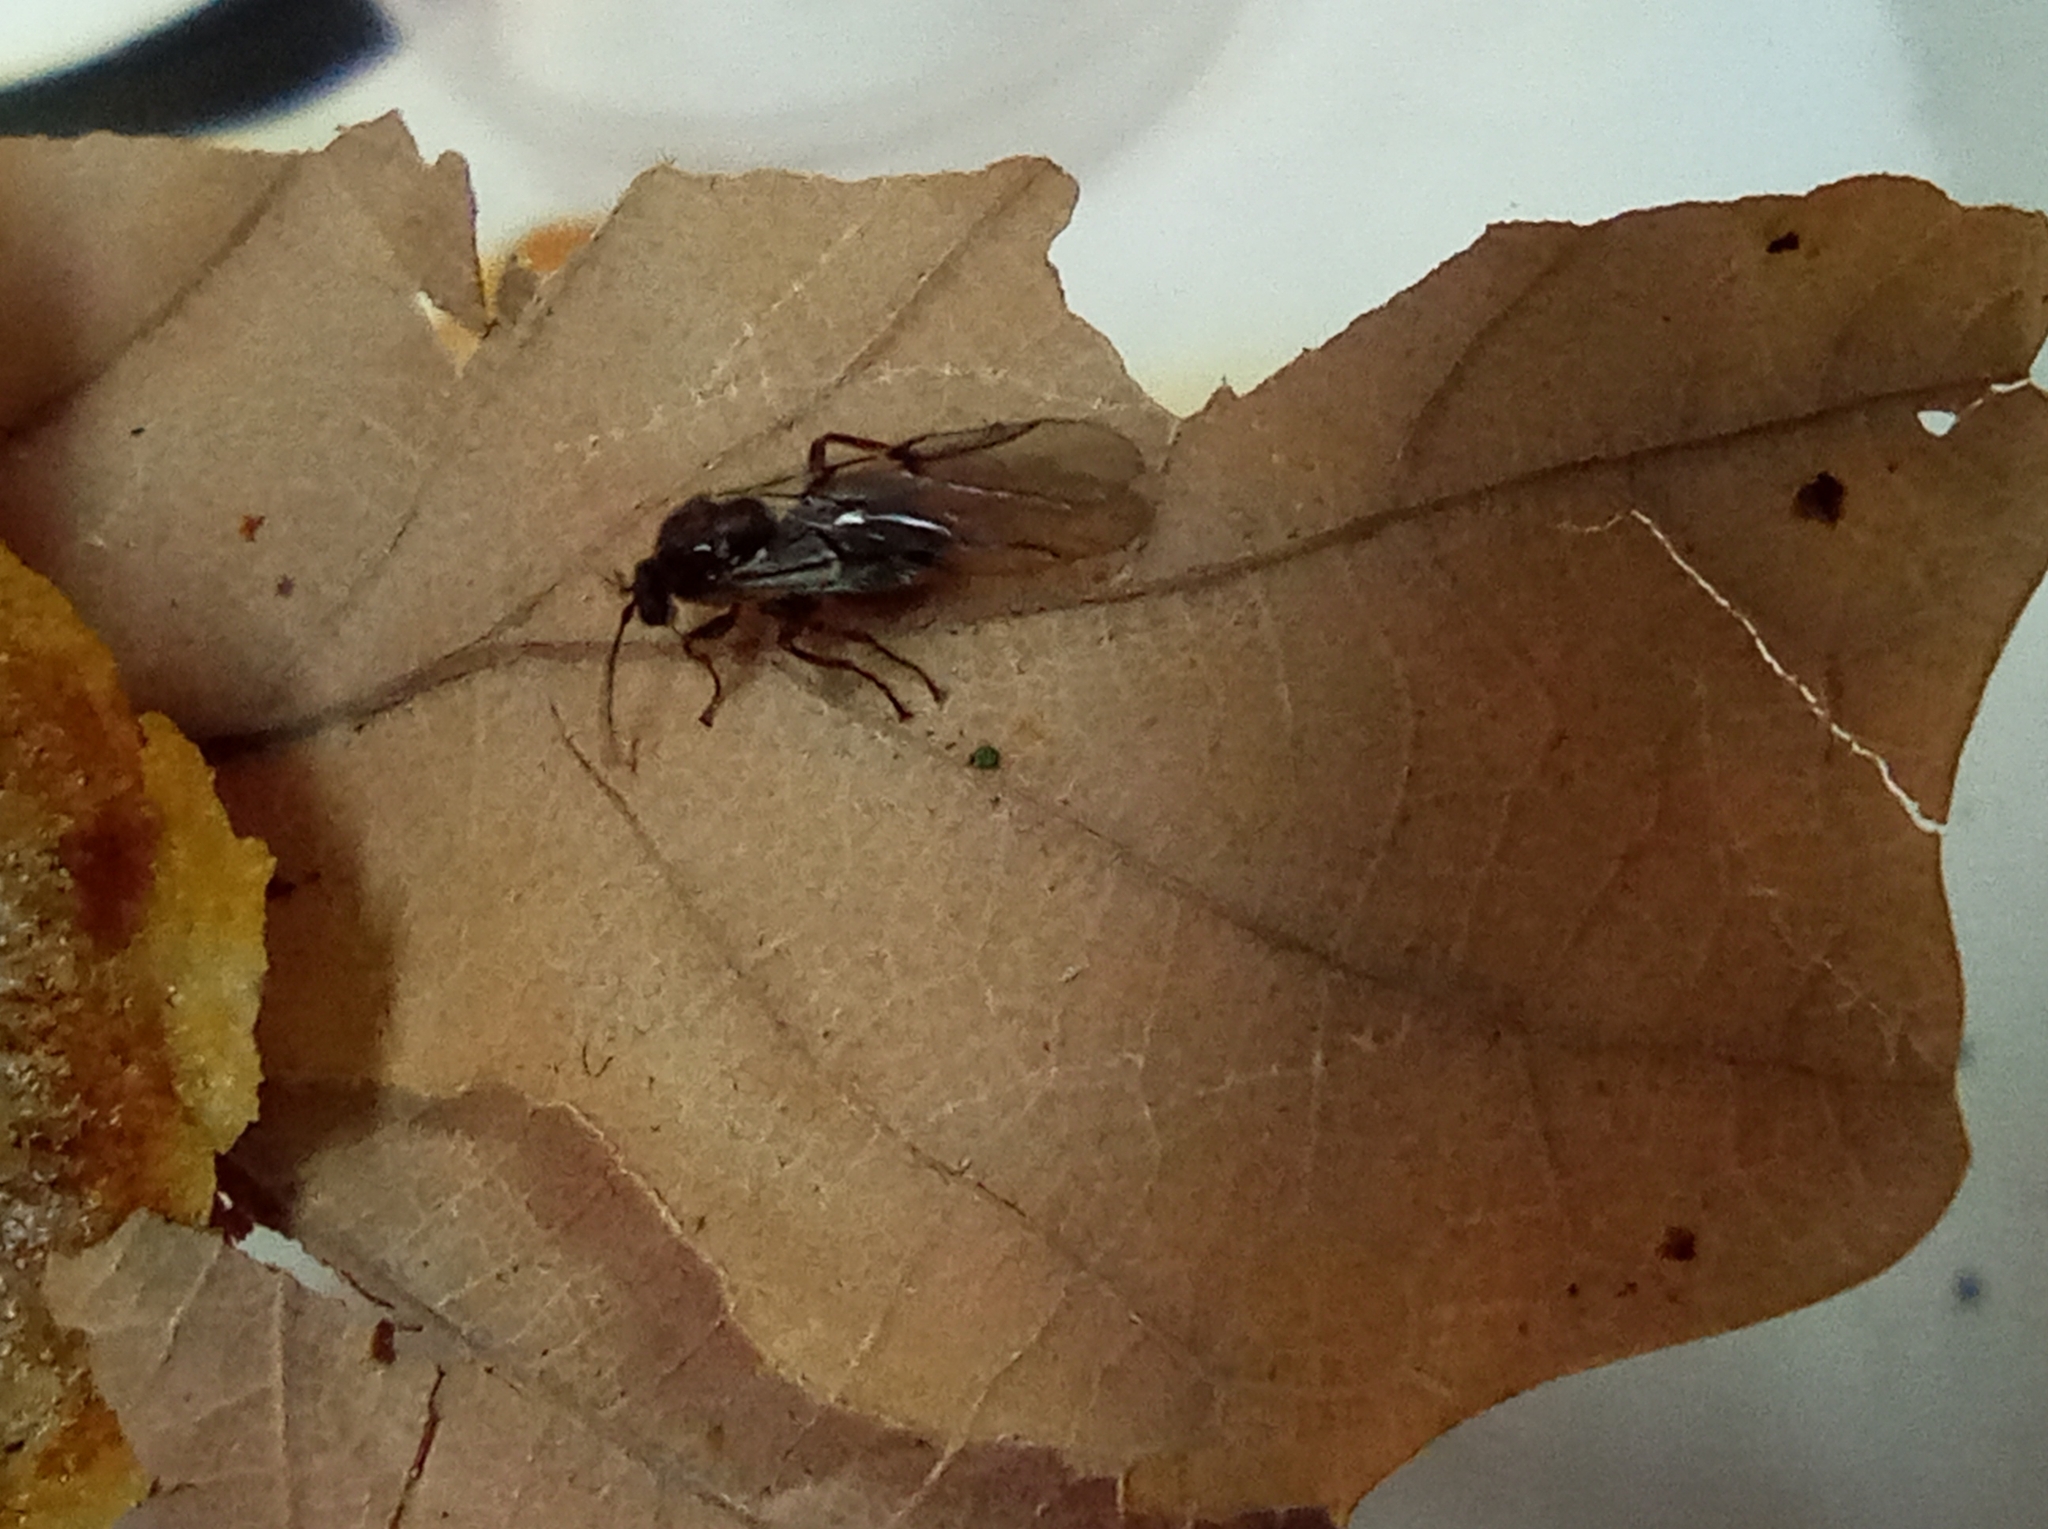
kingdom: Animalia
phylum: Arthropoda
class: Insecta
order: Hymenoptera
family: Cynipidae
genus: Cynips
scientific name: Cynips quercusfolii
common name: Cherry gall
